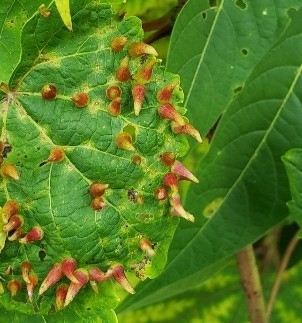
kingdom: Animalia
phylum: Arthropoda
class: Insecta
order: Diptera
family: Cecidomyiidae
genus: Ampelomyia
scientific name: Ampelomyia viticola
